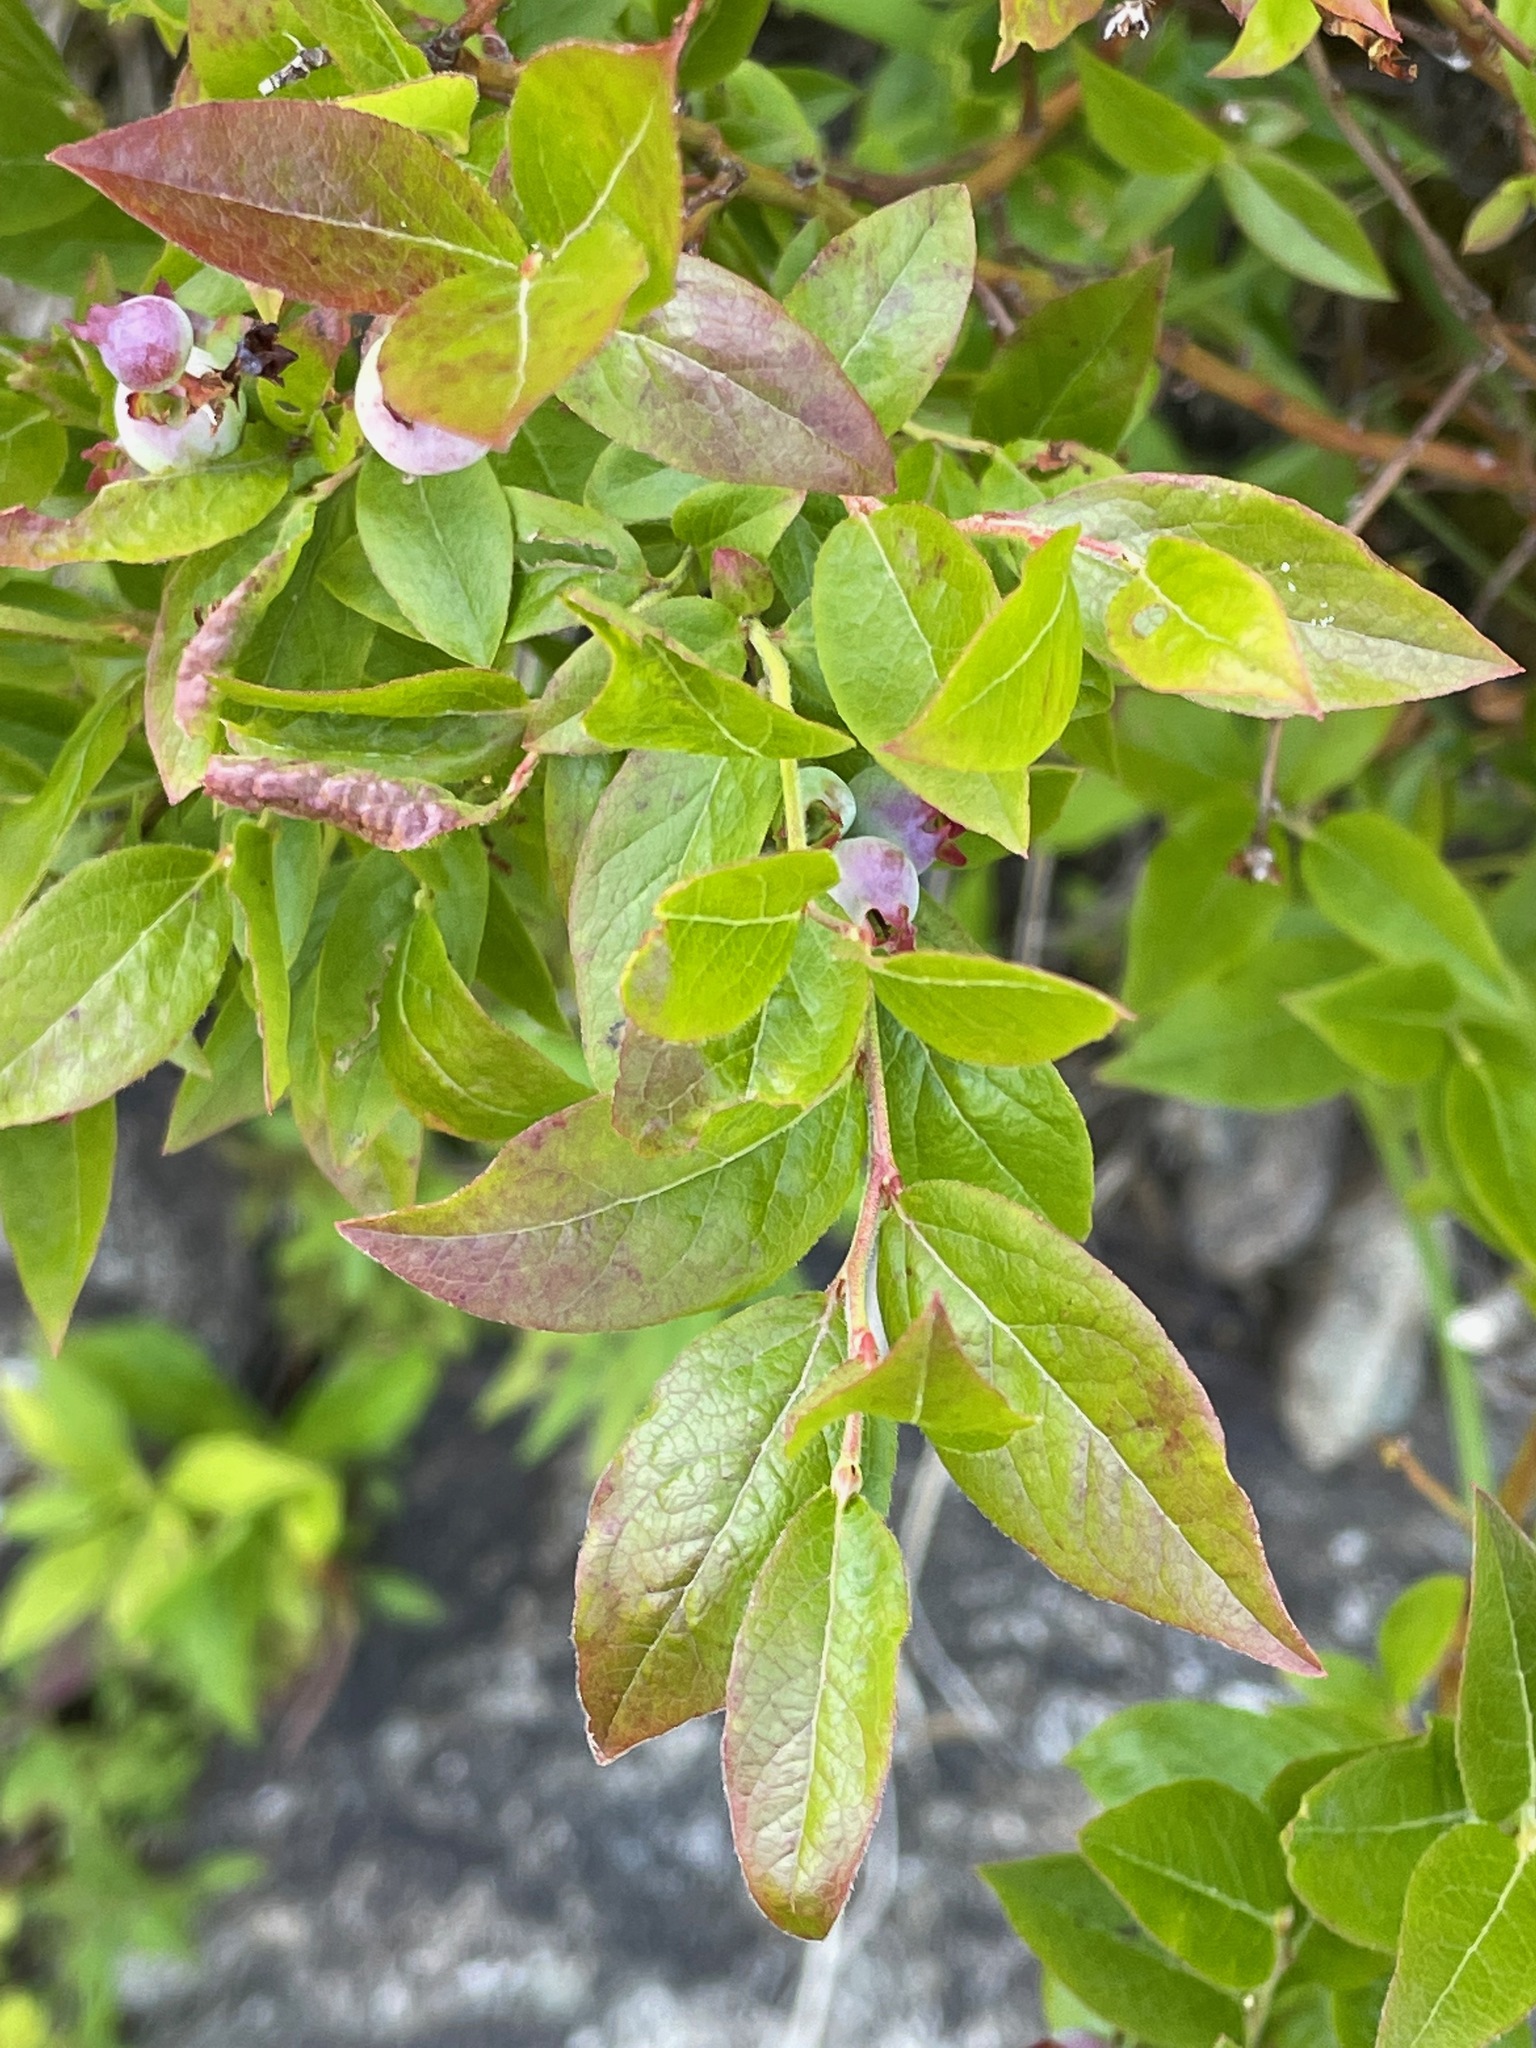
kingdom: Plantae
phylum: Tracheophyta
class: Magnoliopsida
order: Ericales
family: Ericaceae
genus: Vaccinium
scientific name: Vaccinium myrtilloides
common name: Canada blueberry
